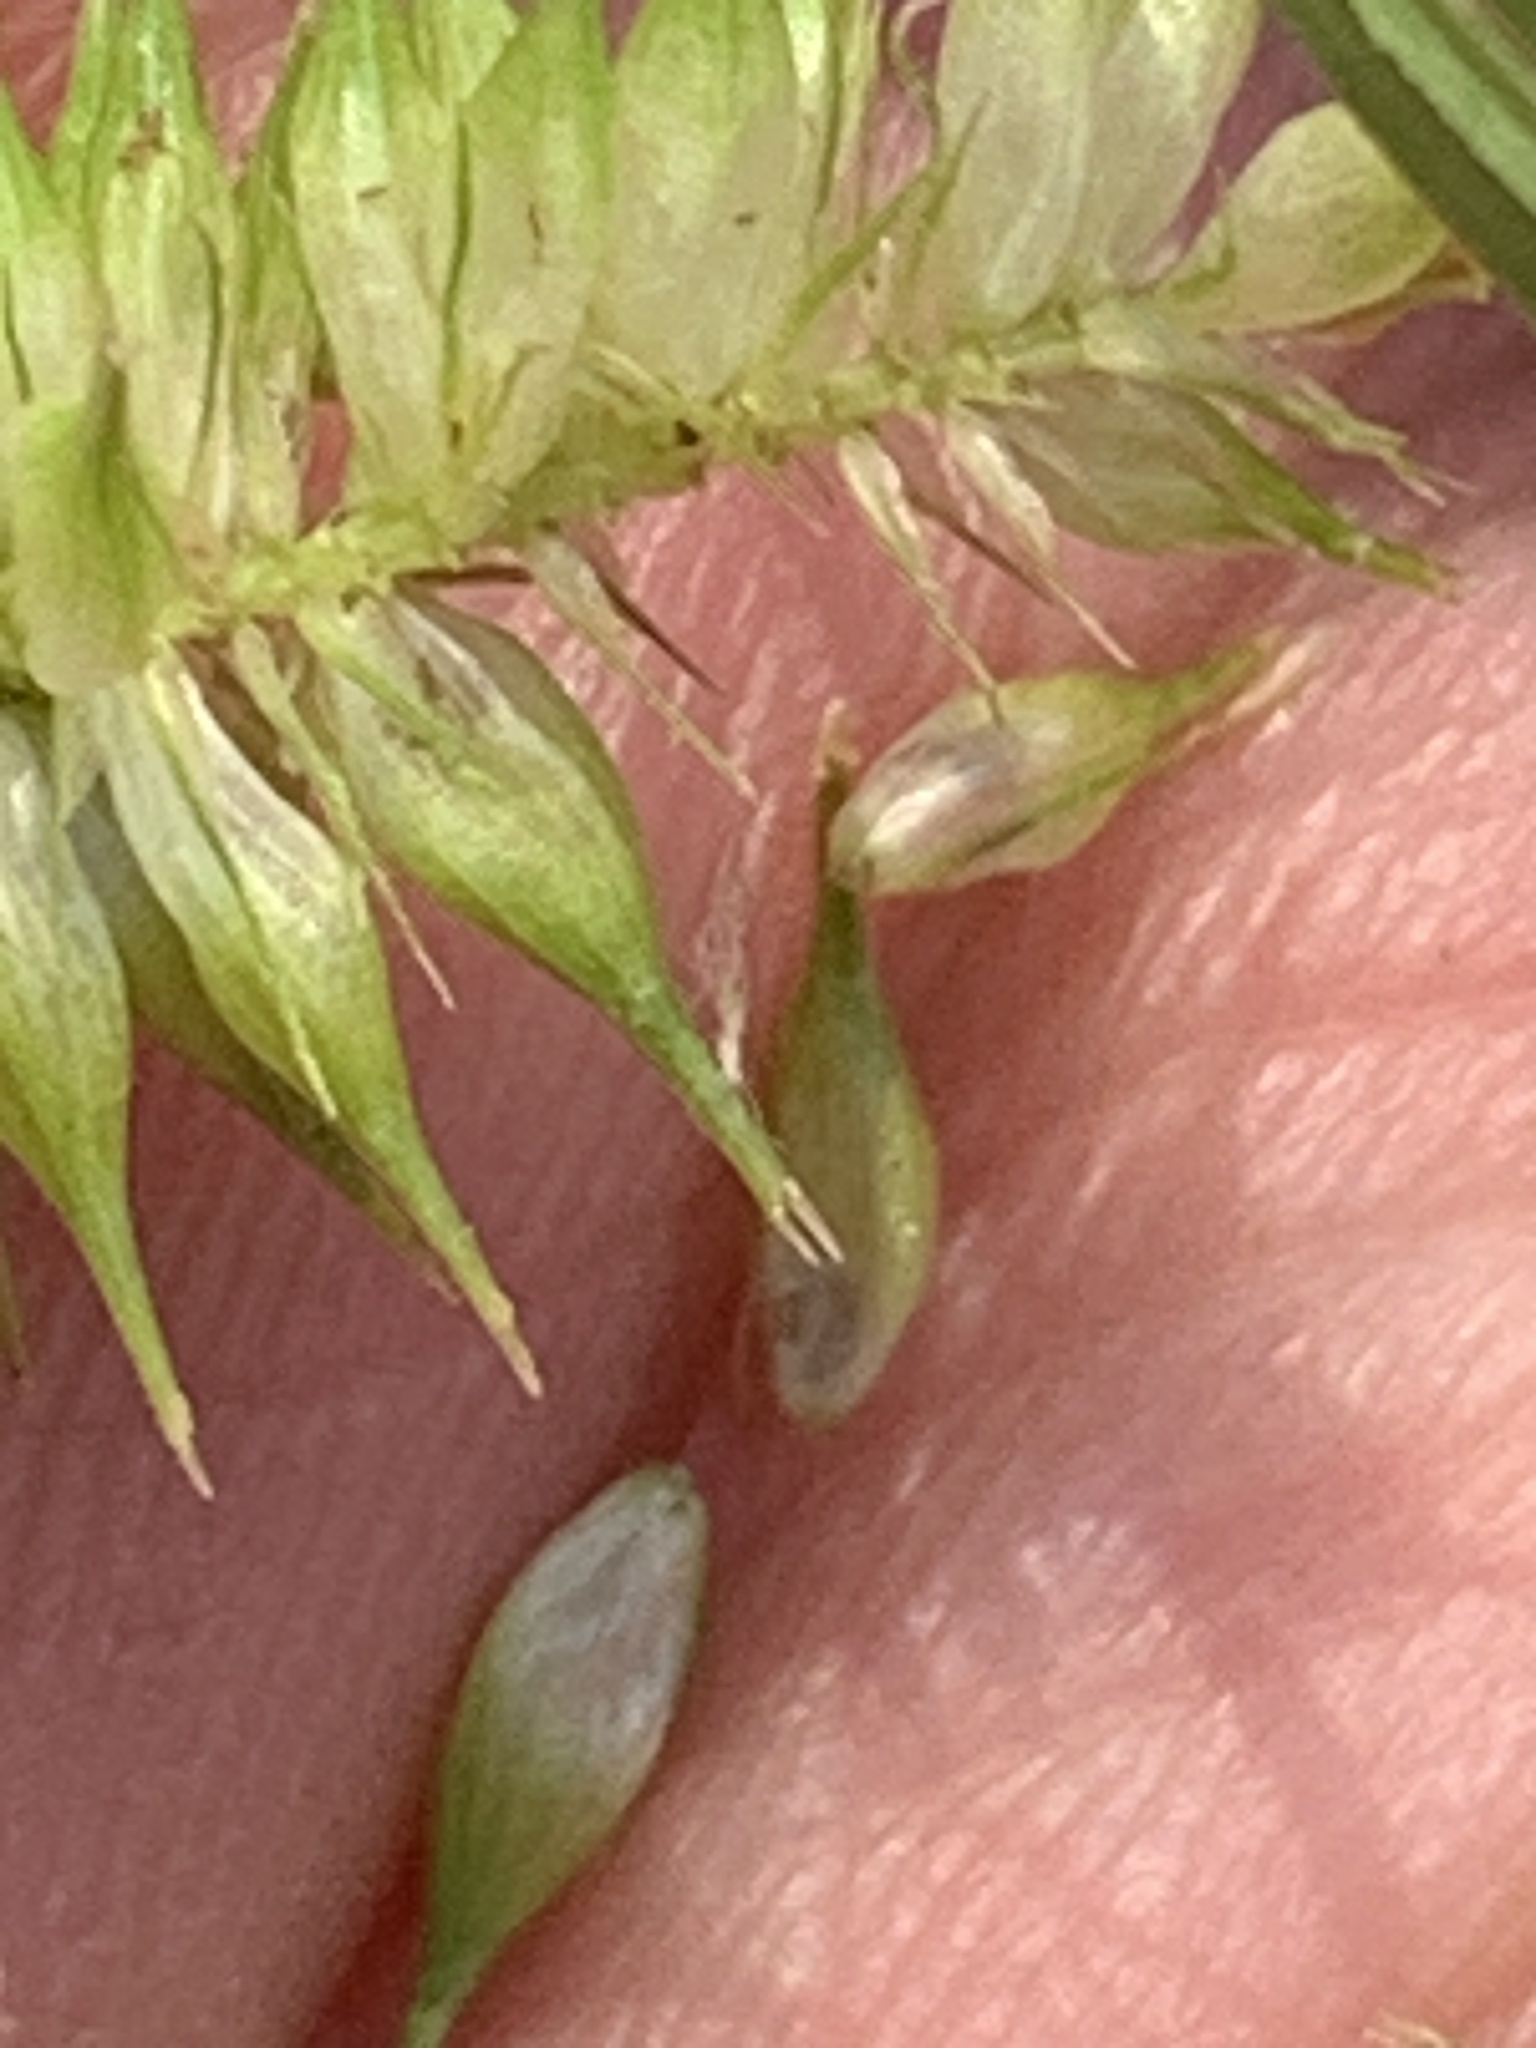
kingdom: Plantae
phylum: Tracheophyta
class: Liliopsida
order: Poales
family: Cyperaceae
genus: Carex
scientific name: Carex hystericina
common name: Bottlebrush sedge
